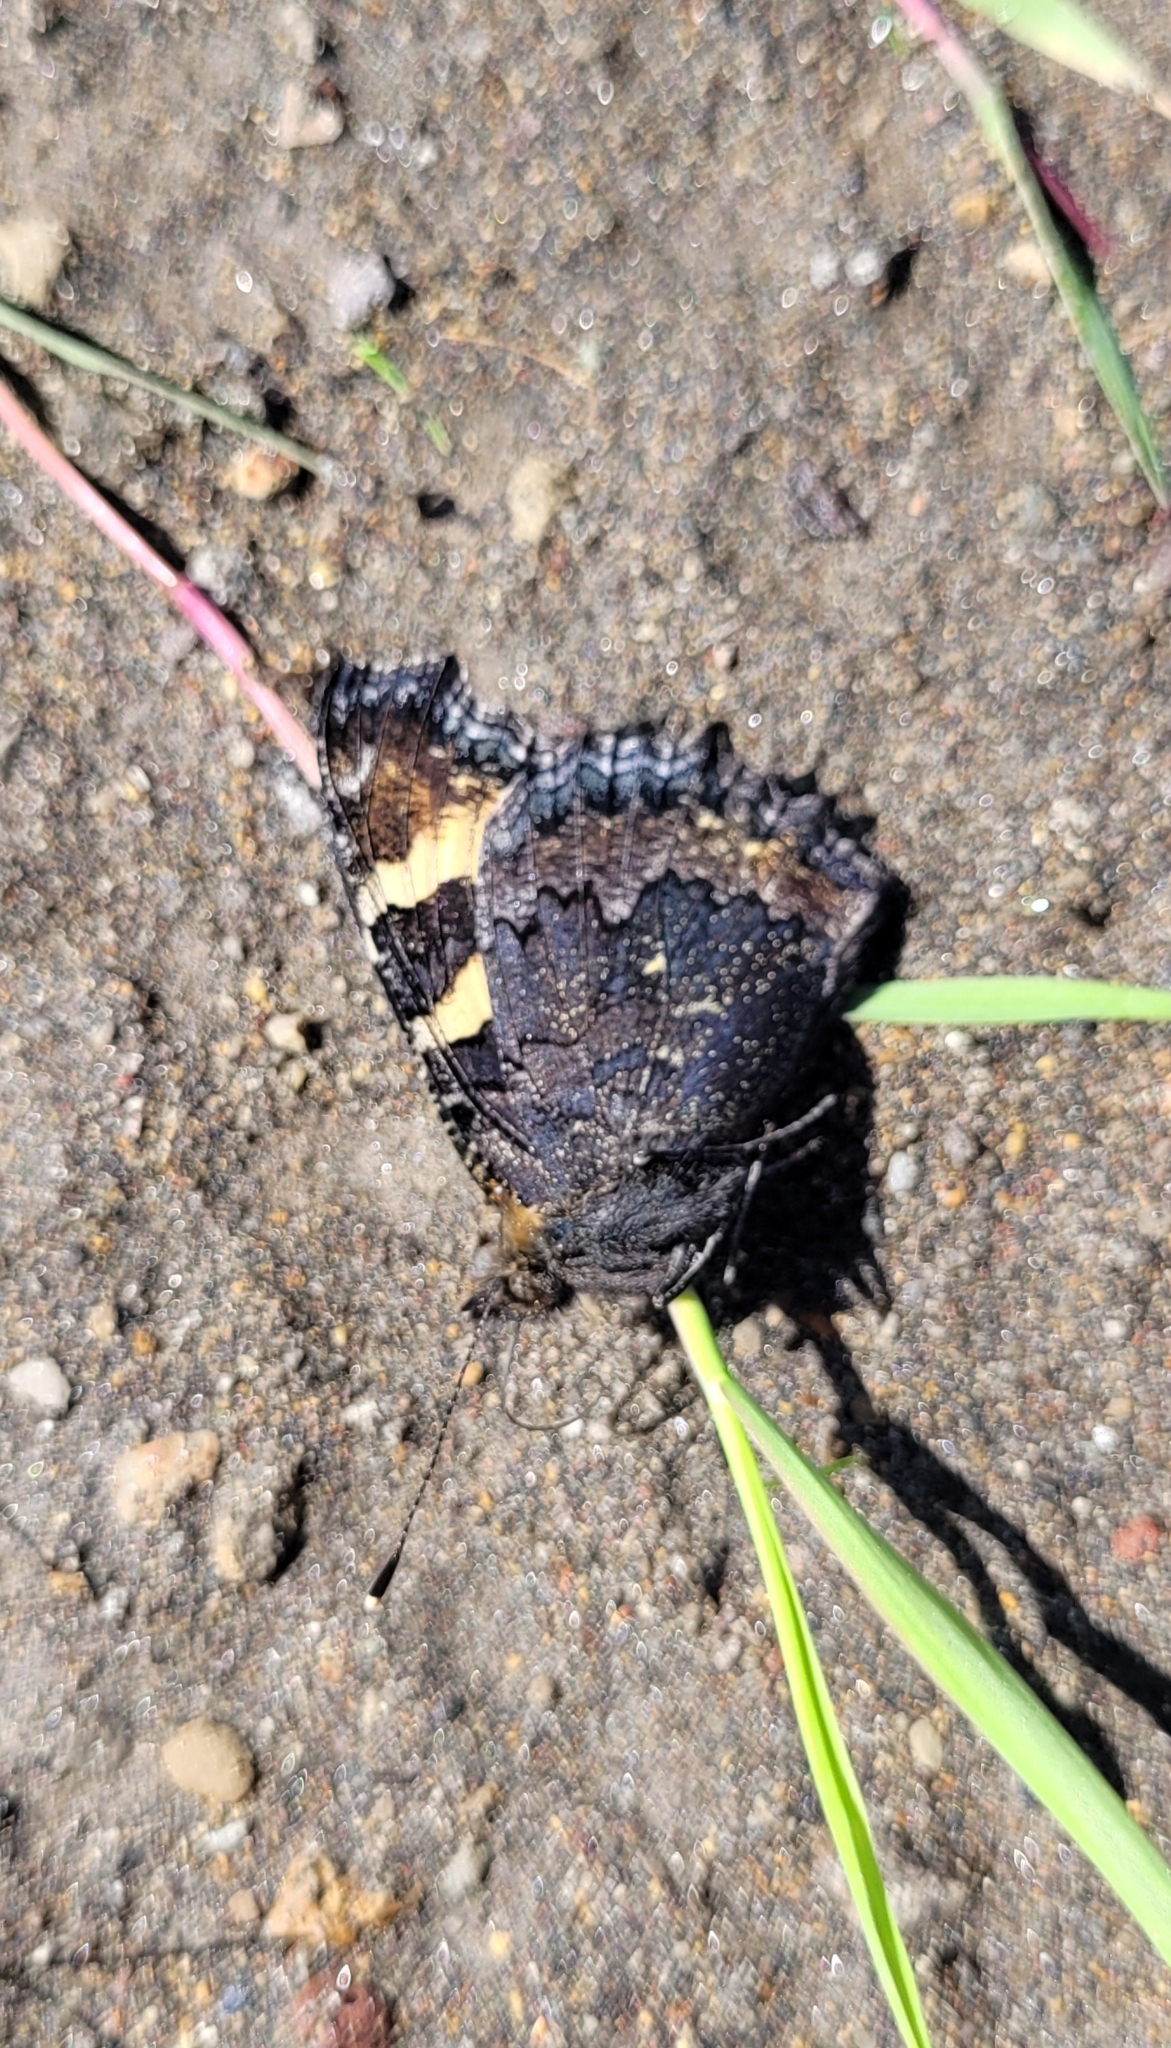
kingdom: Animalia
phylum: Arthropoda
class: Insecta
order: Lepidoptera
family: Nymphalidae
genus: Aglais
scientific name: Aglais urticae
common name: Small tortoiseshell
